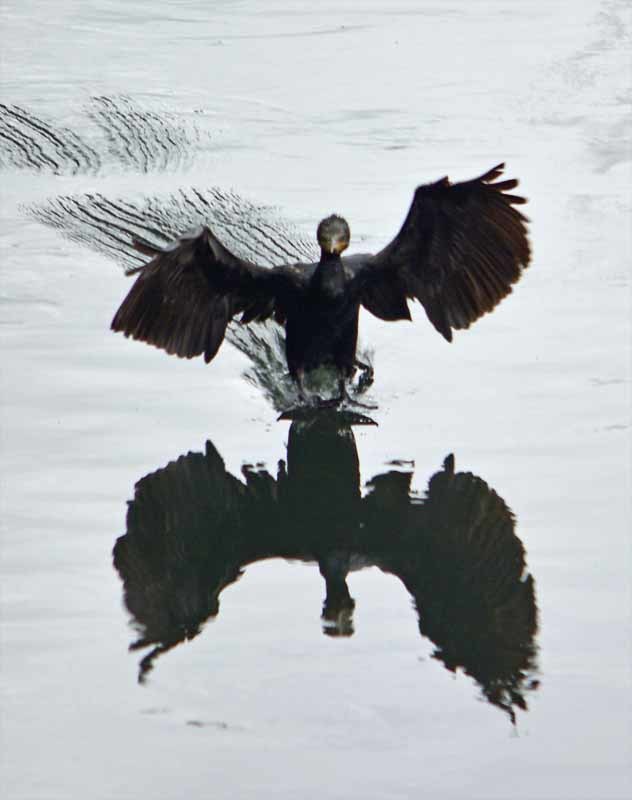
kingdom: Animalia
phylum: Chordata
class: Aves
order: Suliformes
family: Phalacrocoracidae
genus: Phalacrocorax
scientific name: Phalacrocorax brasilianus
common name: Neotropic cormorant
